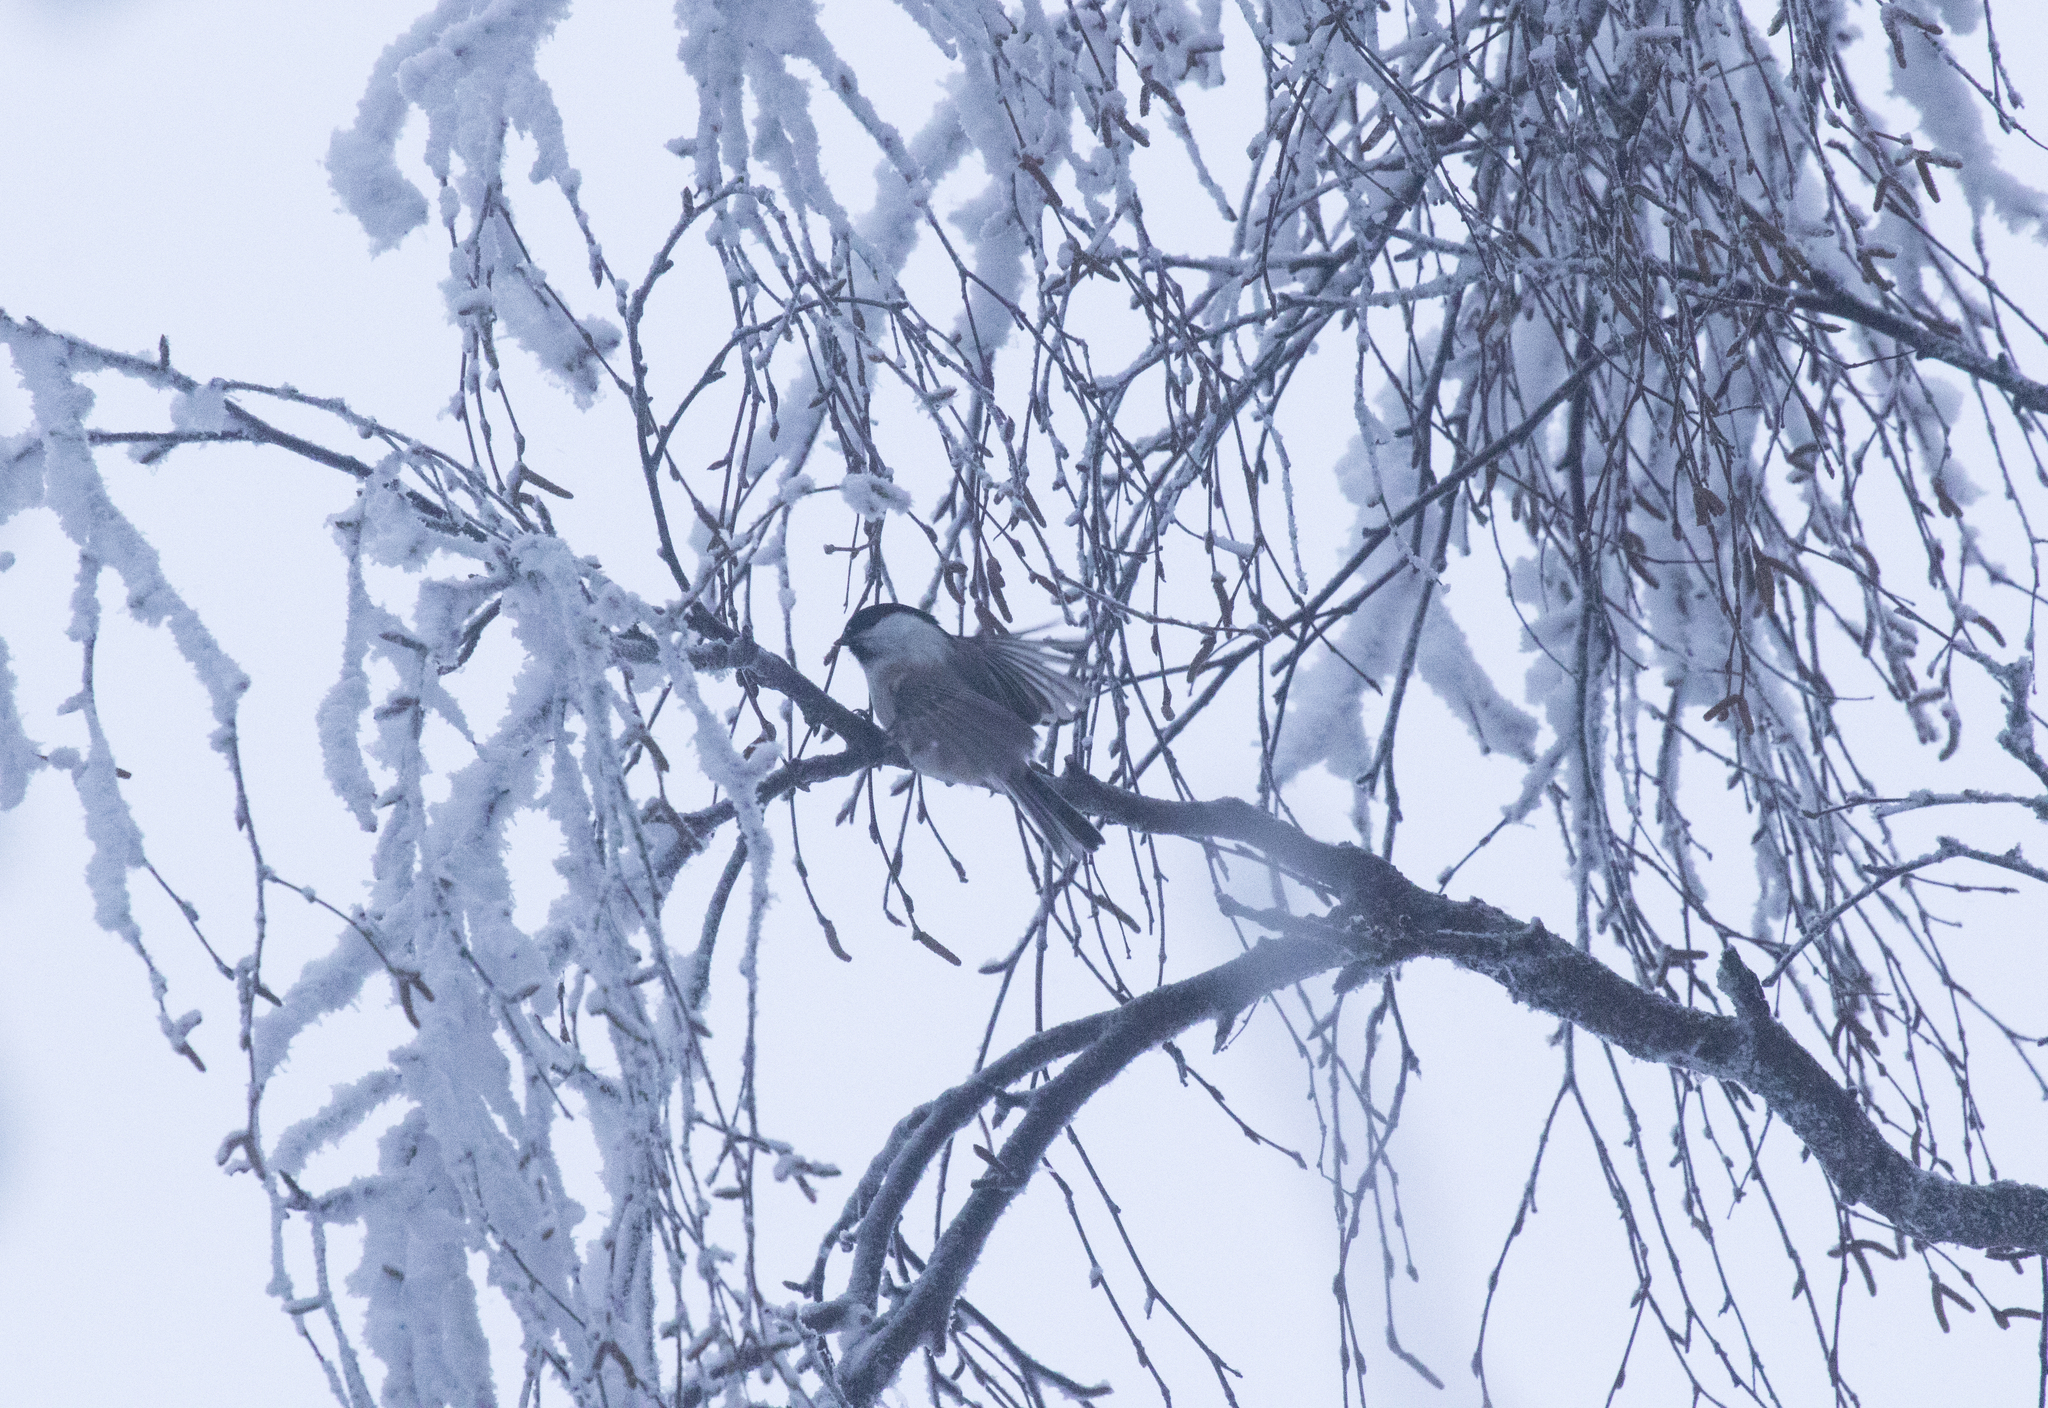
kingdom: Animalia
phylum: Chordata
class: Aves
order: Passeriformes
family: Paridae
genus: Poecile
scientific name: Poecile palustris
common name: Marsh tit
